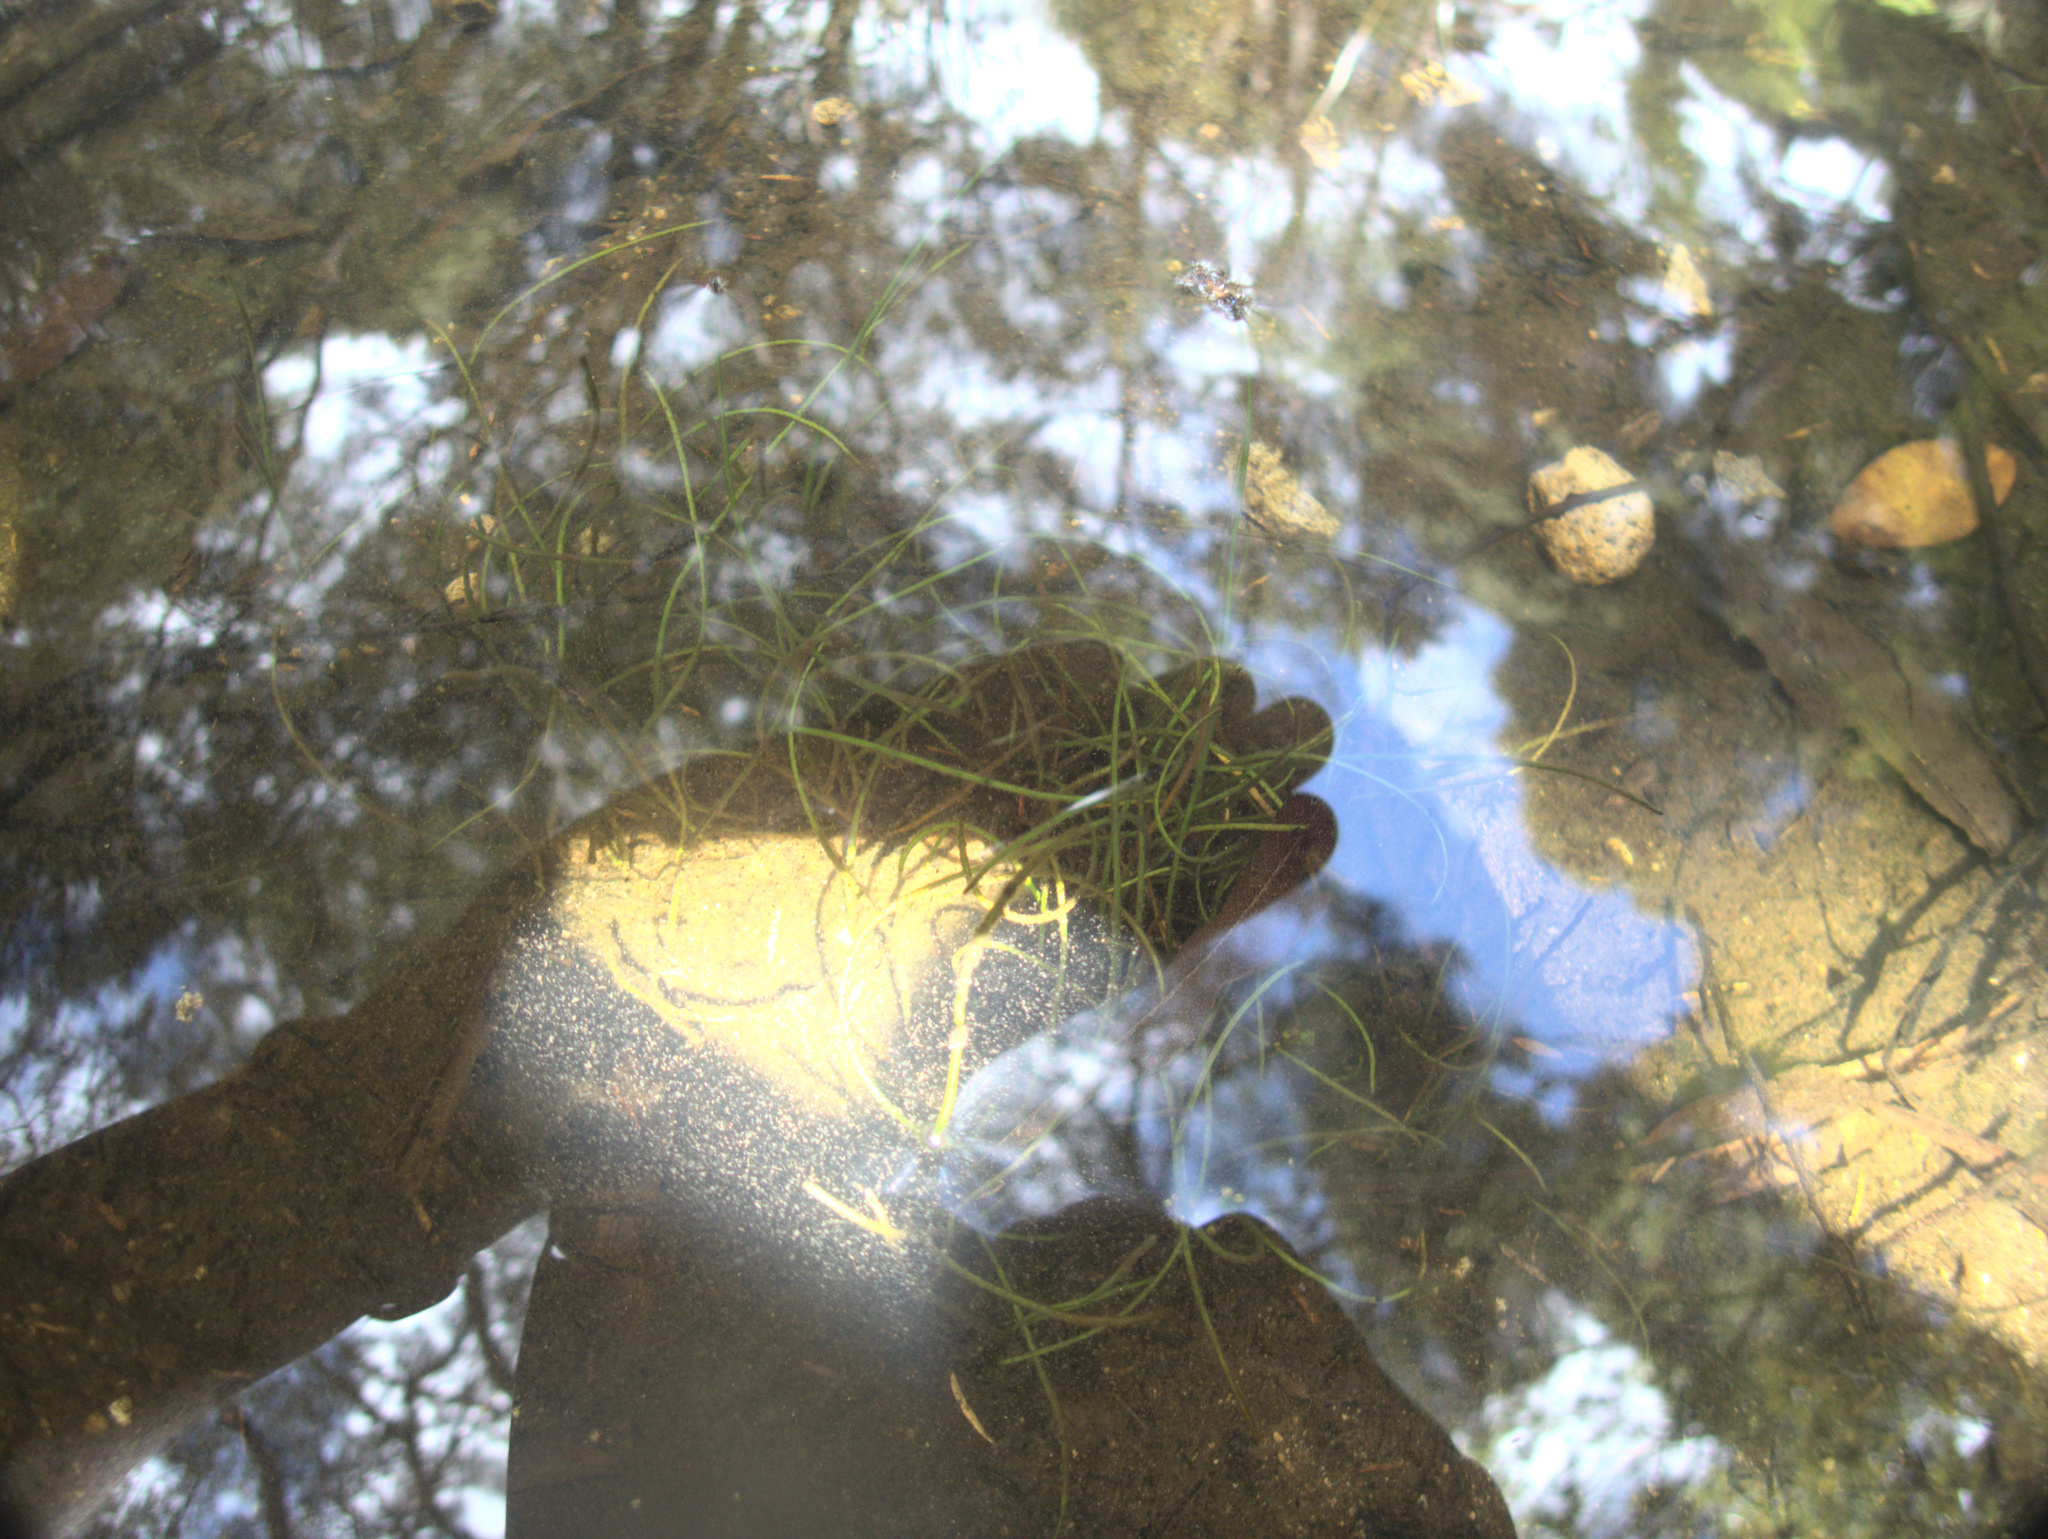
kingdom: Plantae
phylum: Tracheophyta
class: Liliopsida
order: Alismatales
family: Juncaginaceae
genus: Triglochin
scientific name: Triglochin striata
